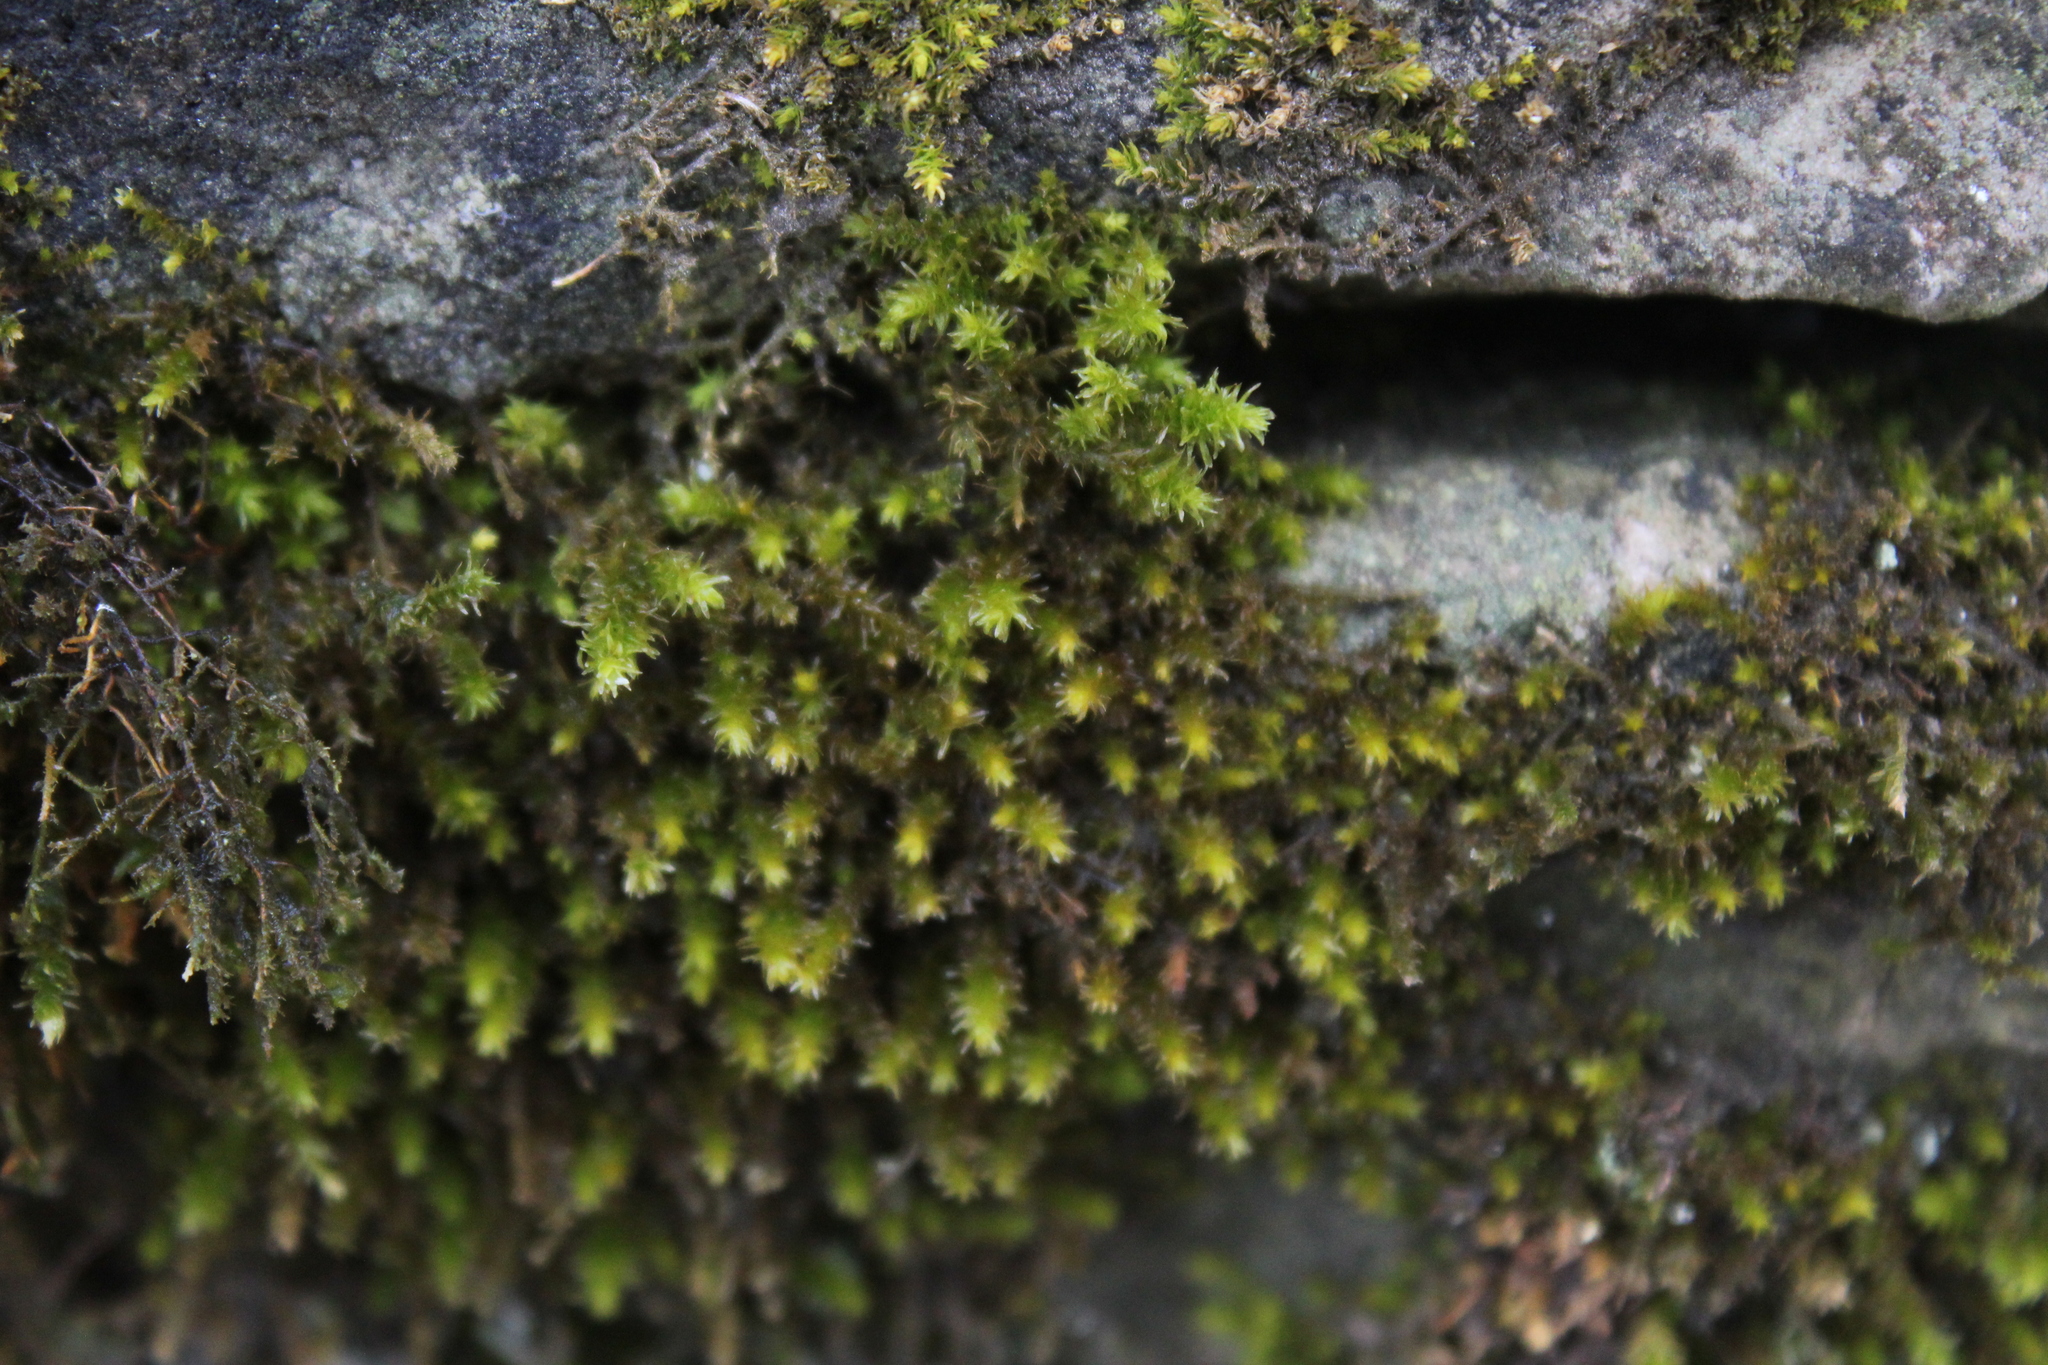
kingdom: Plantae
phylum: Bryophyta
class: Bryopsida
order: Hedwigiales
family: Hedwigiaceae
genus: Hedwigia
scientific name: Hedwigia ciliata
